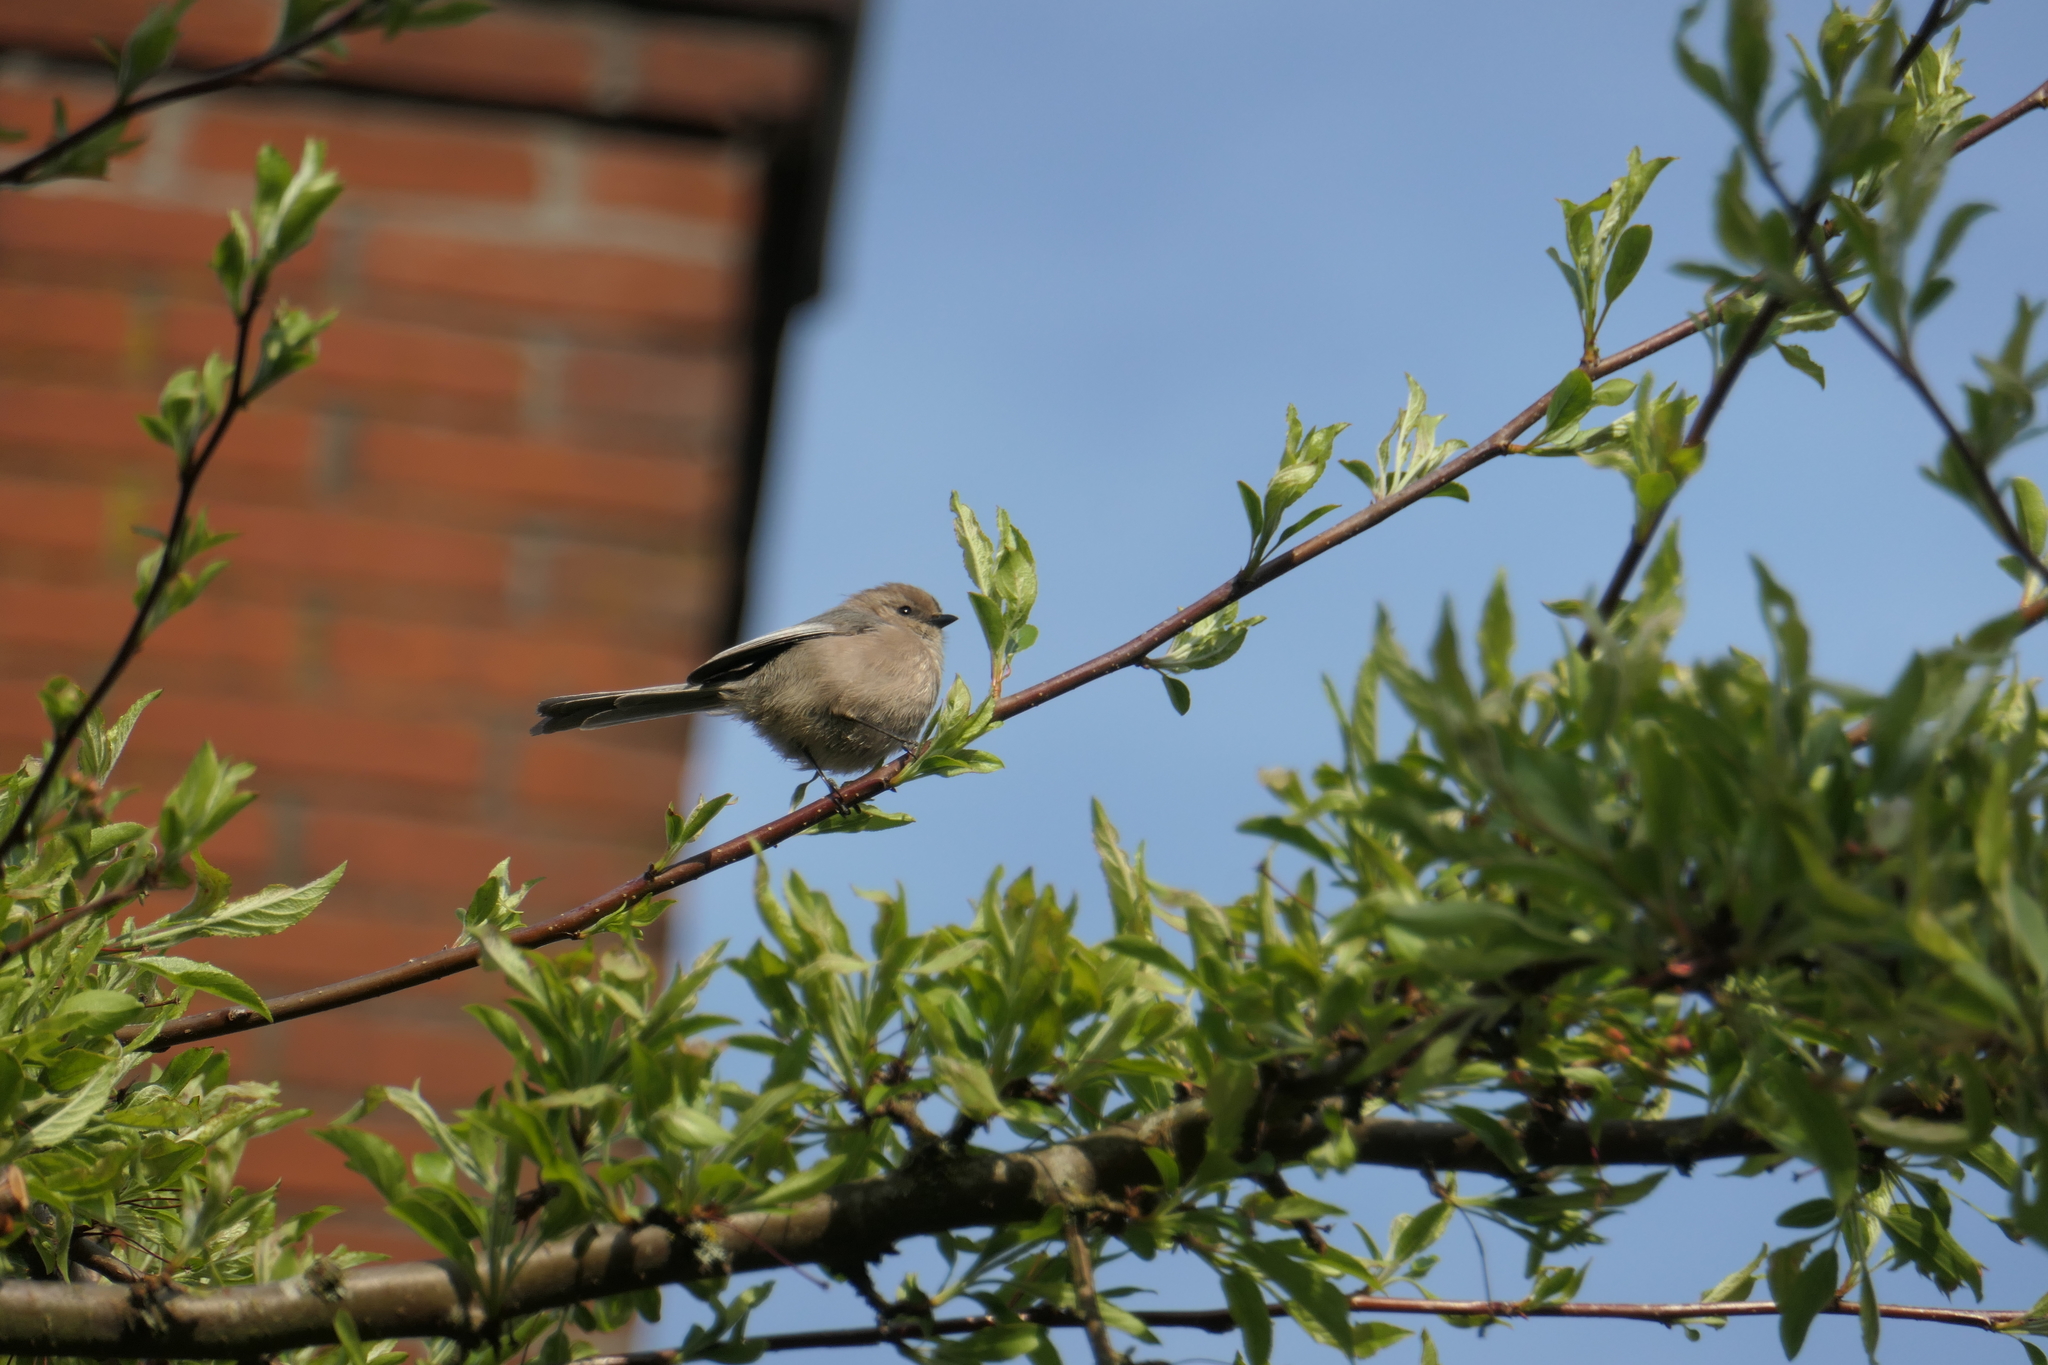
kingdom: Animalia
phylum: Chordata
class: Aves
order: Passeriformes
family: Aegithalidae
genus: Psaltriparus
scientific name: Psaltriparus minimus
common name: American bushtit
